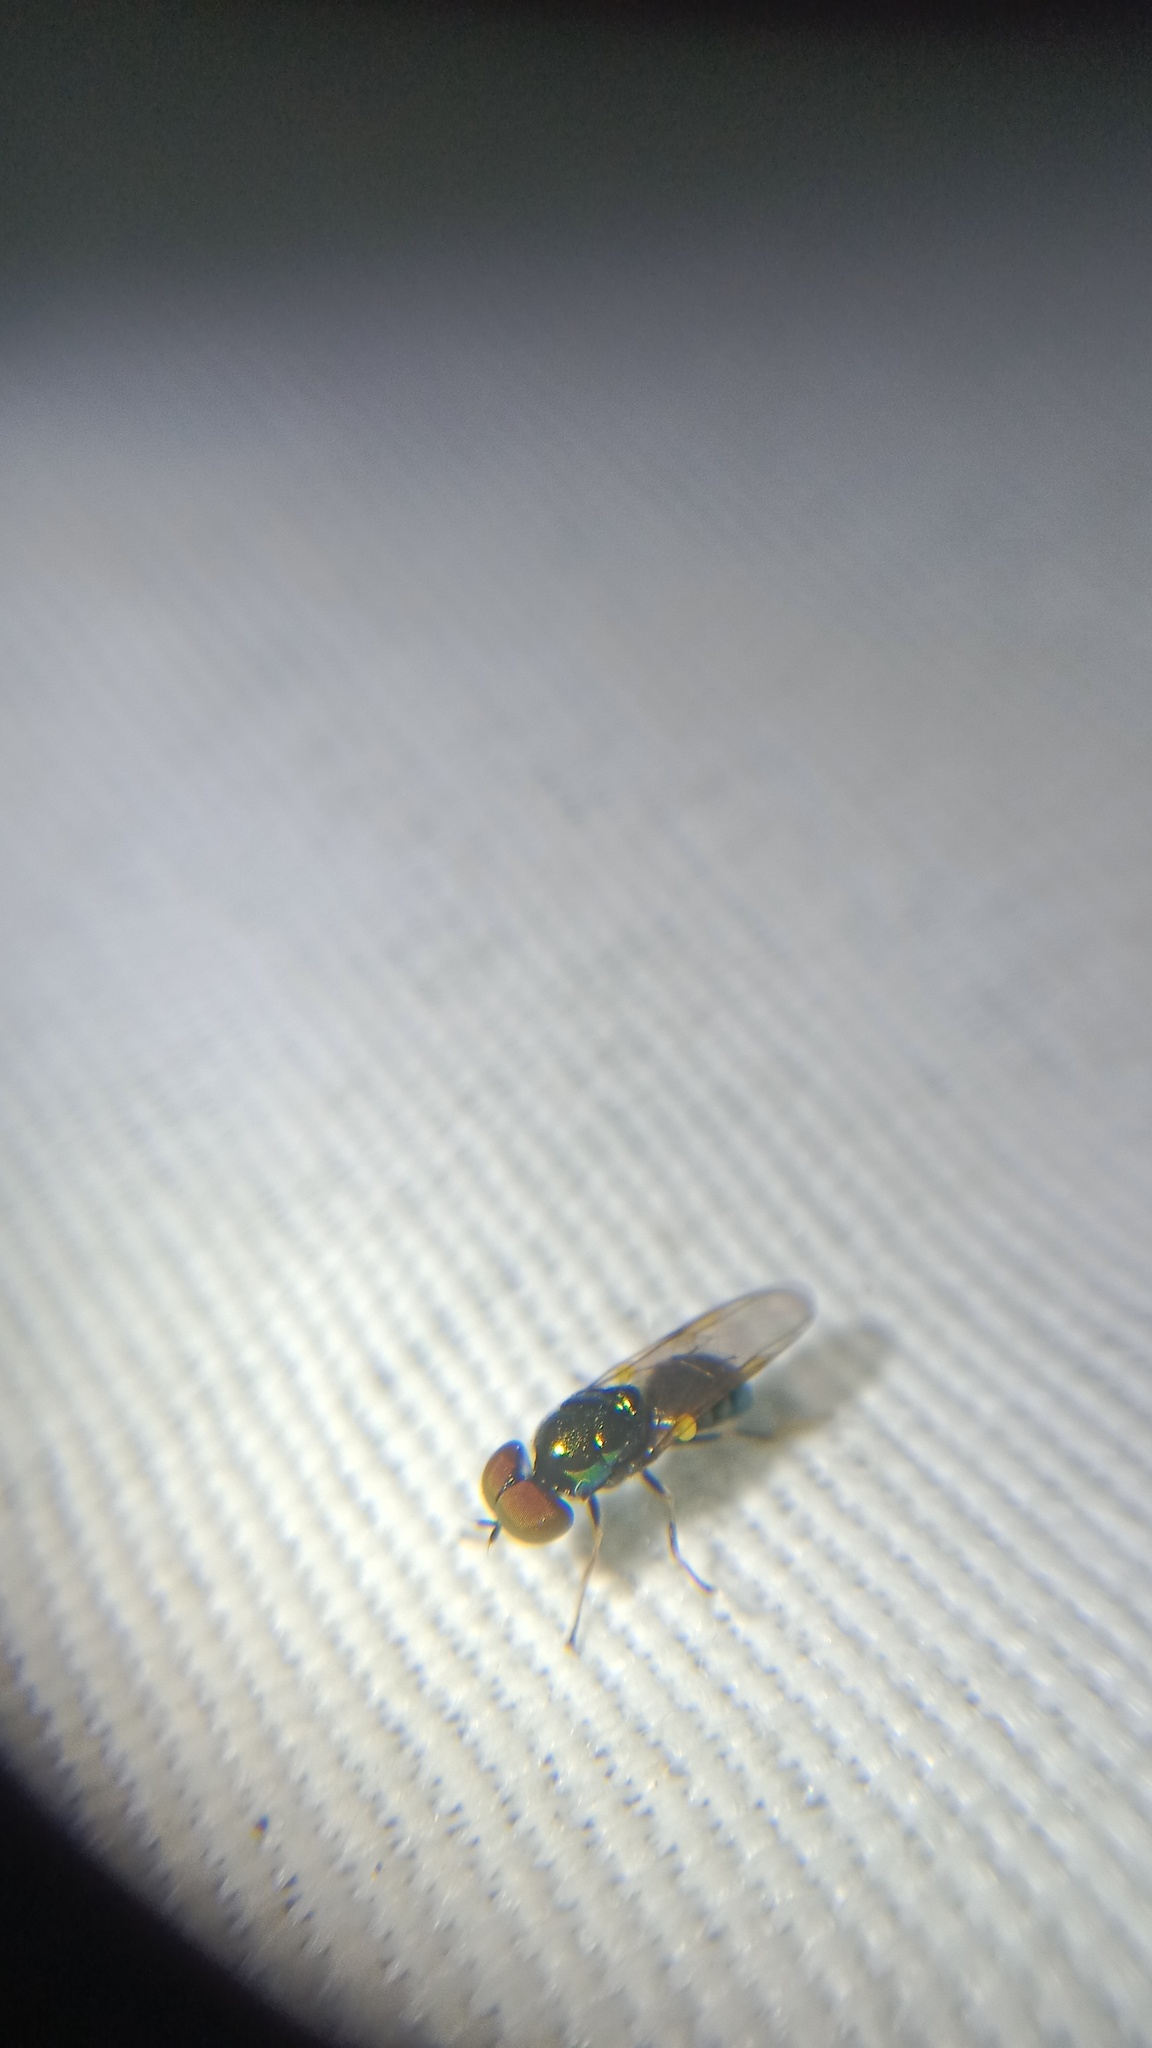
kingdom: Animalia
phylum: Arthropoda
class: Insecta
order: Diptera
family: Stratiomyidae
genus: Microchrysa
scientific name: Microchrysa polita
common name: Black-horned gem
